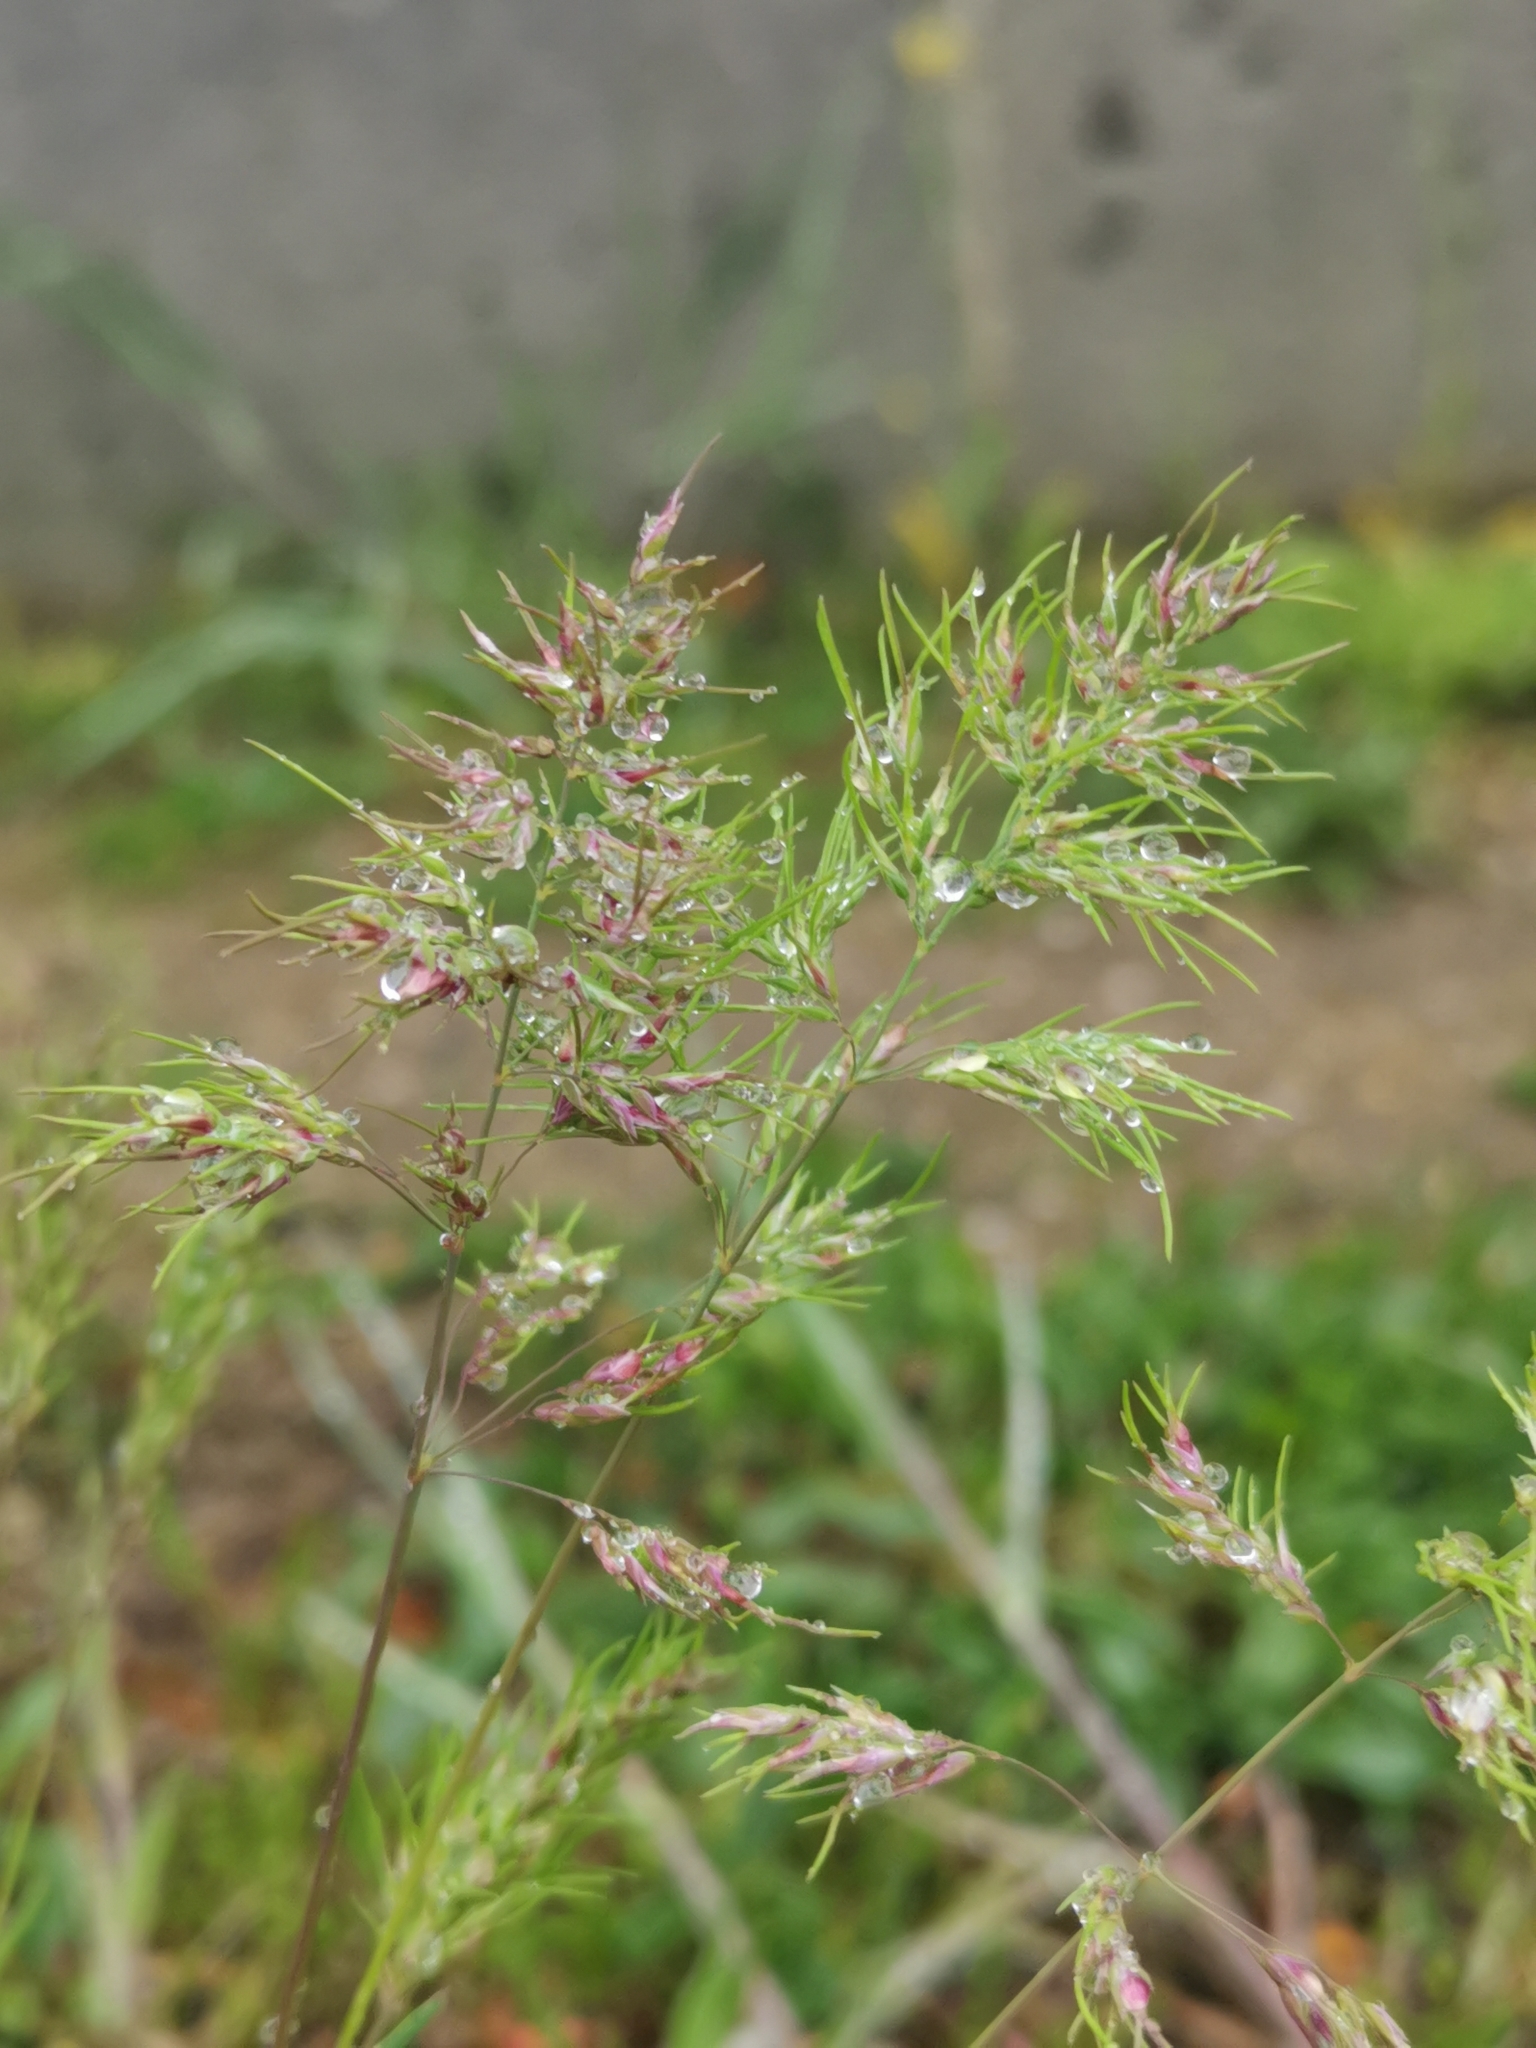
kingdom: Plantae
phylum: Tracheophyta
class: Liliopsida
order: Poales
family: Poaceae
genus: Poa
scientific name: Poa bulbosa
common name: Bulbous bluegrass
